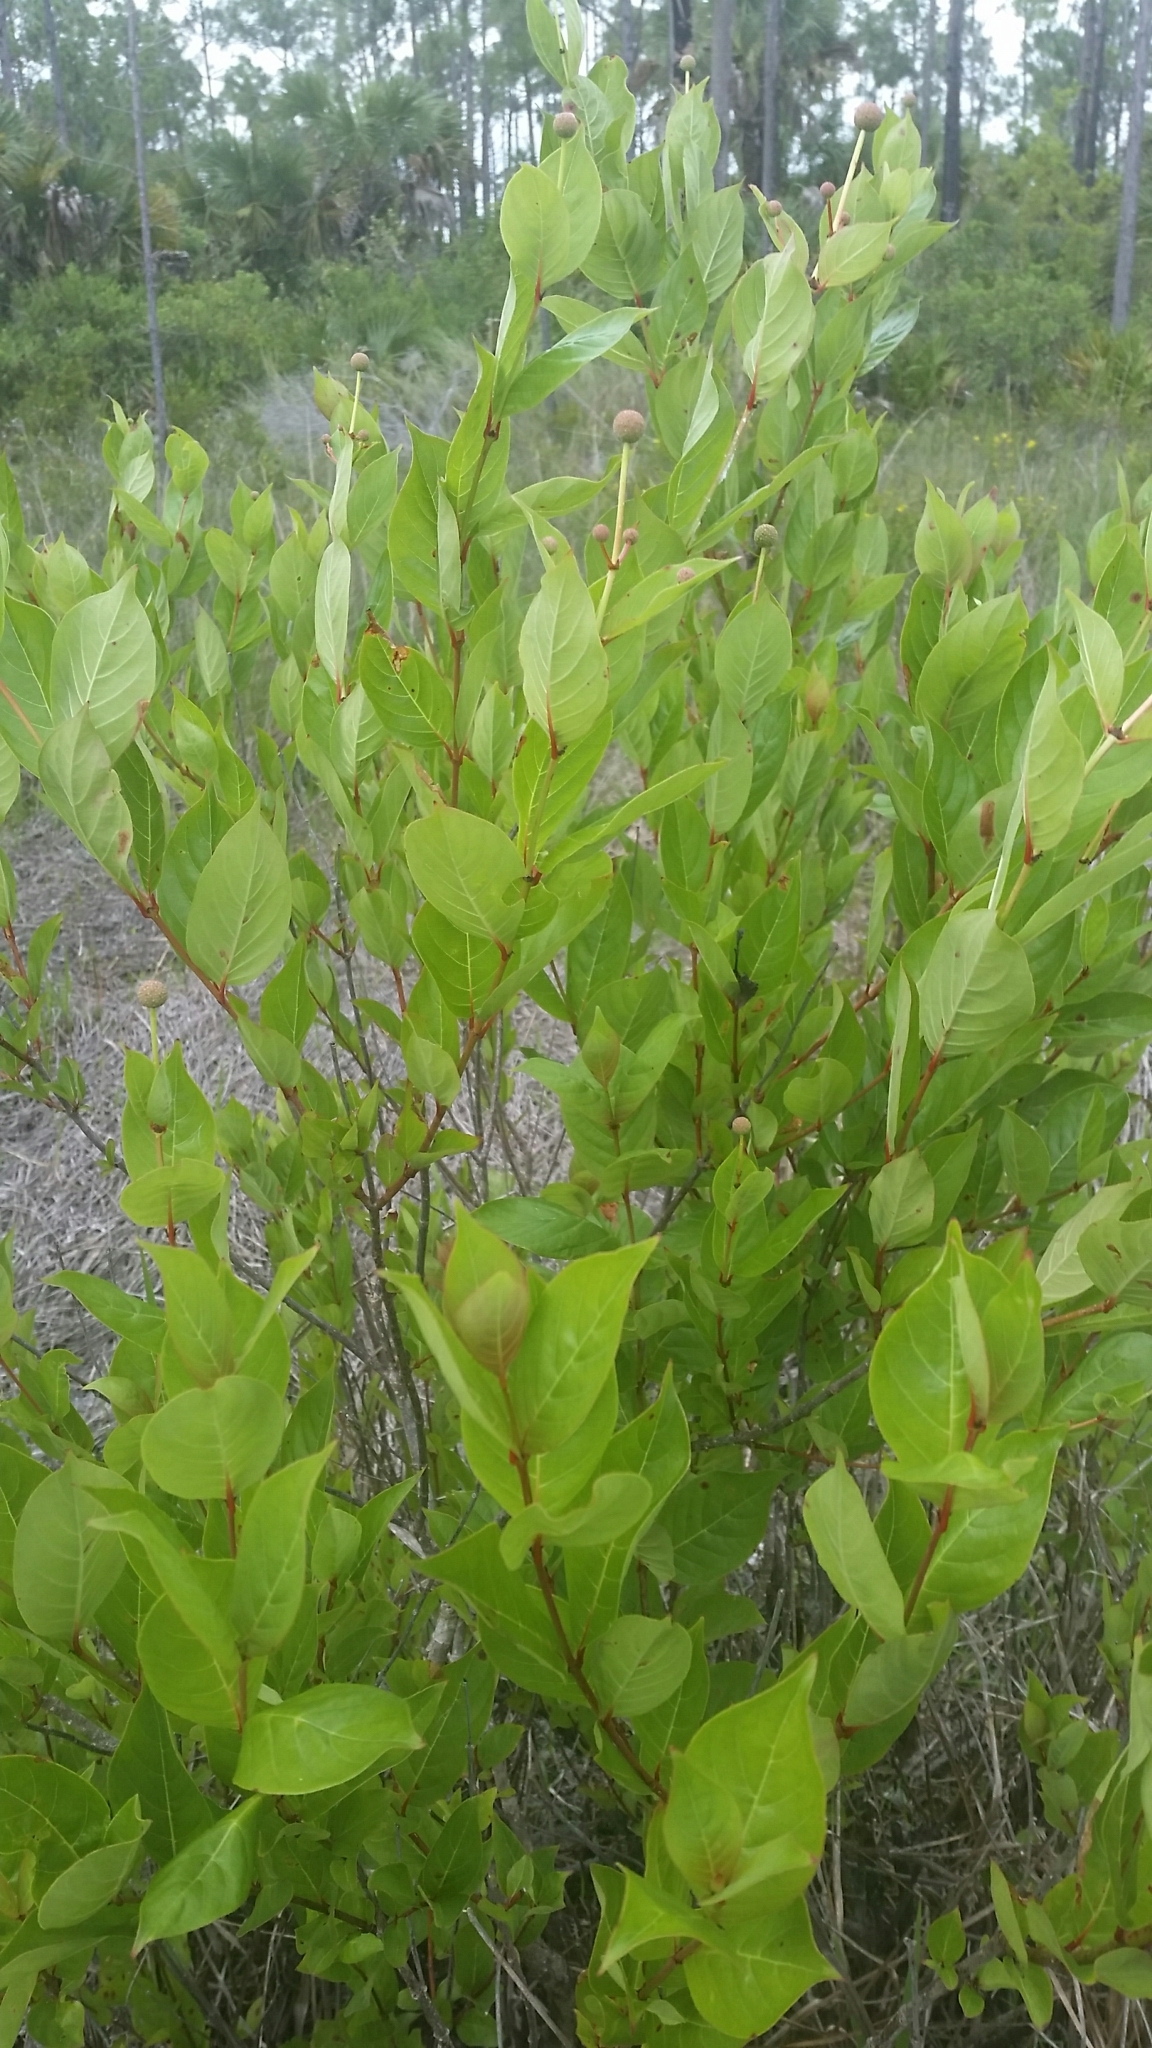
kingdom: Plantae
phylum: Tracheophyta
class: Magnoliopsida
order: Gentianales
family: Rubiaceae
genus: Cephalanthus
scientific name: Cephalanthus occidentalis
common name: Button-willow
